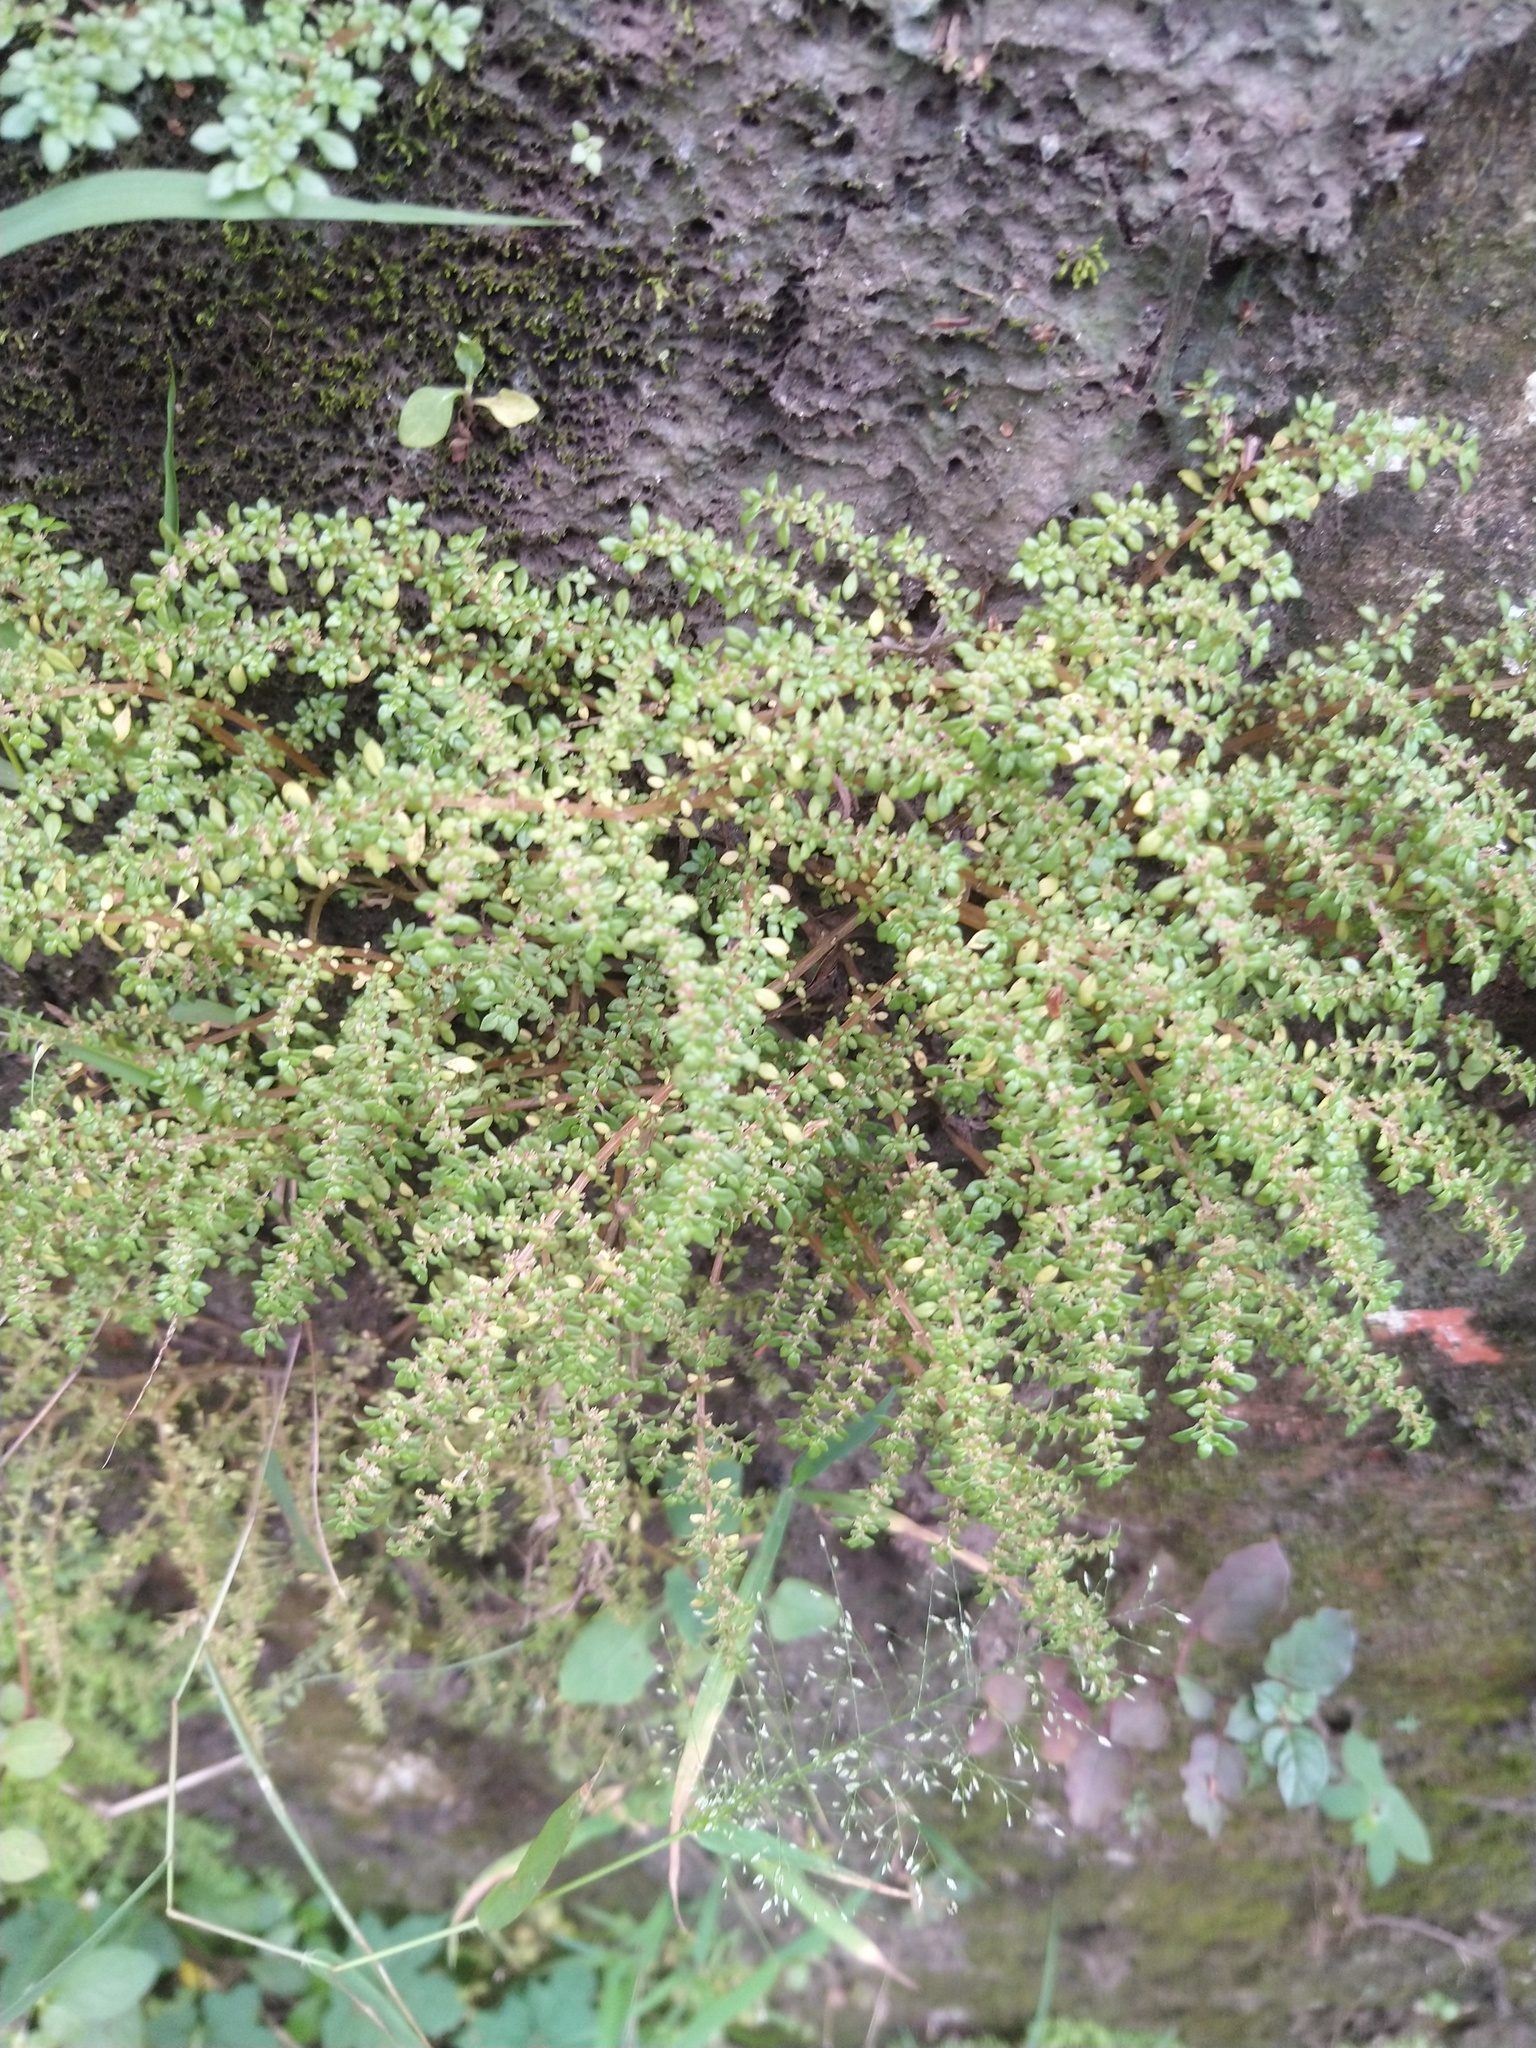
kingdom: Plantae
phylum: Tracheophyta
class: Magnoliopsida
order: Rosales
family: Urticaceae
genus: Pilea
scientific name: Pilea microphylla
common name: Artillery-plant
